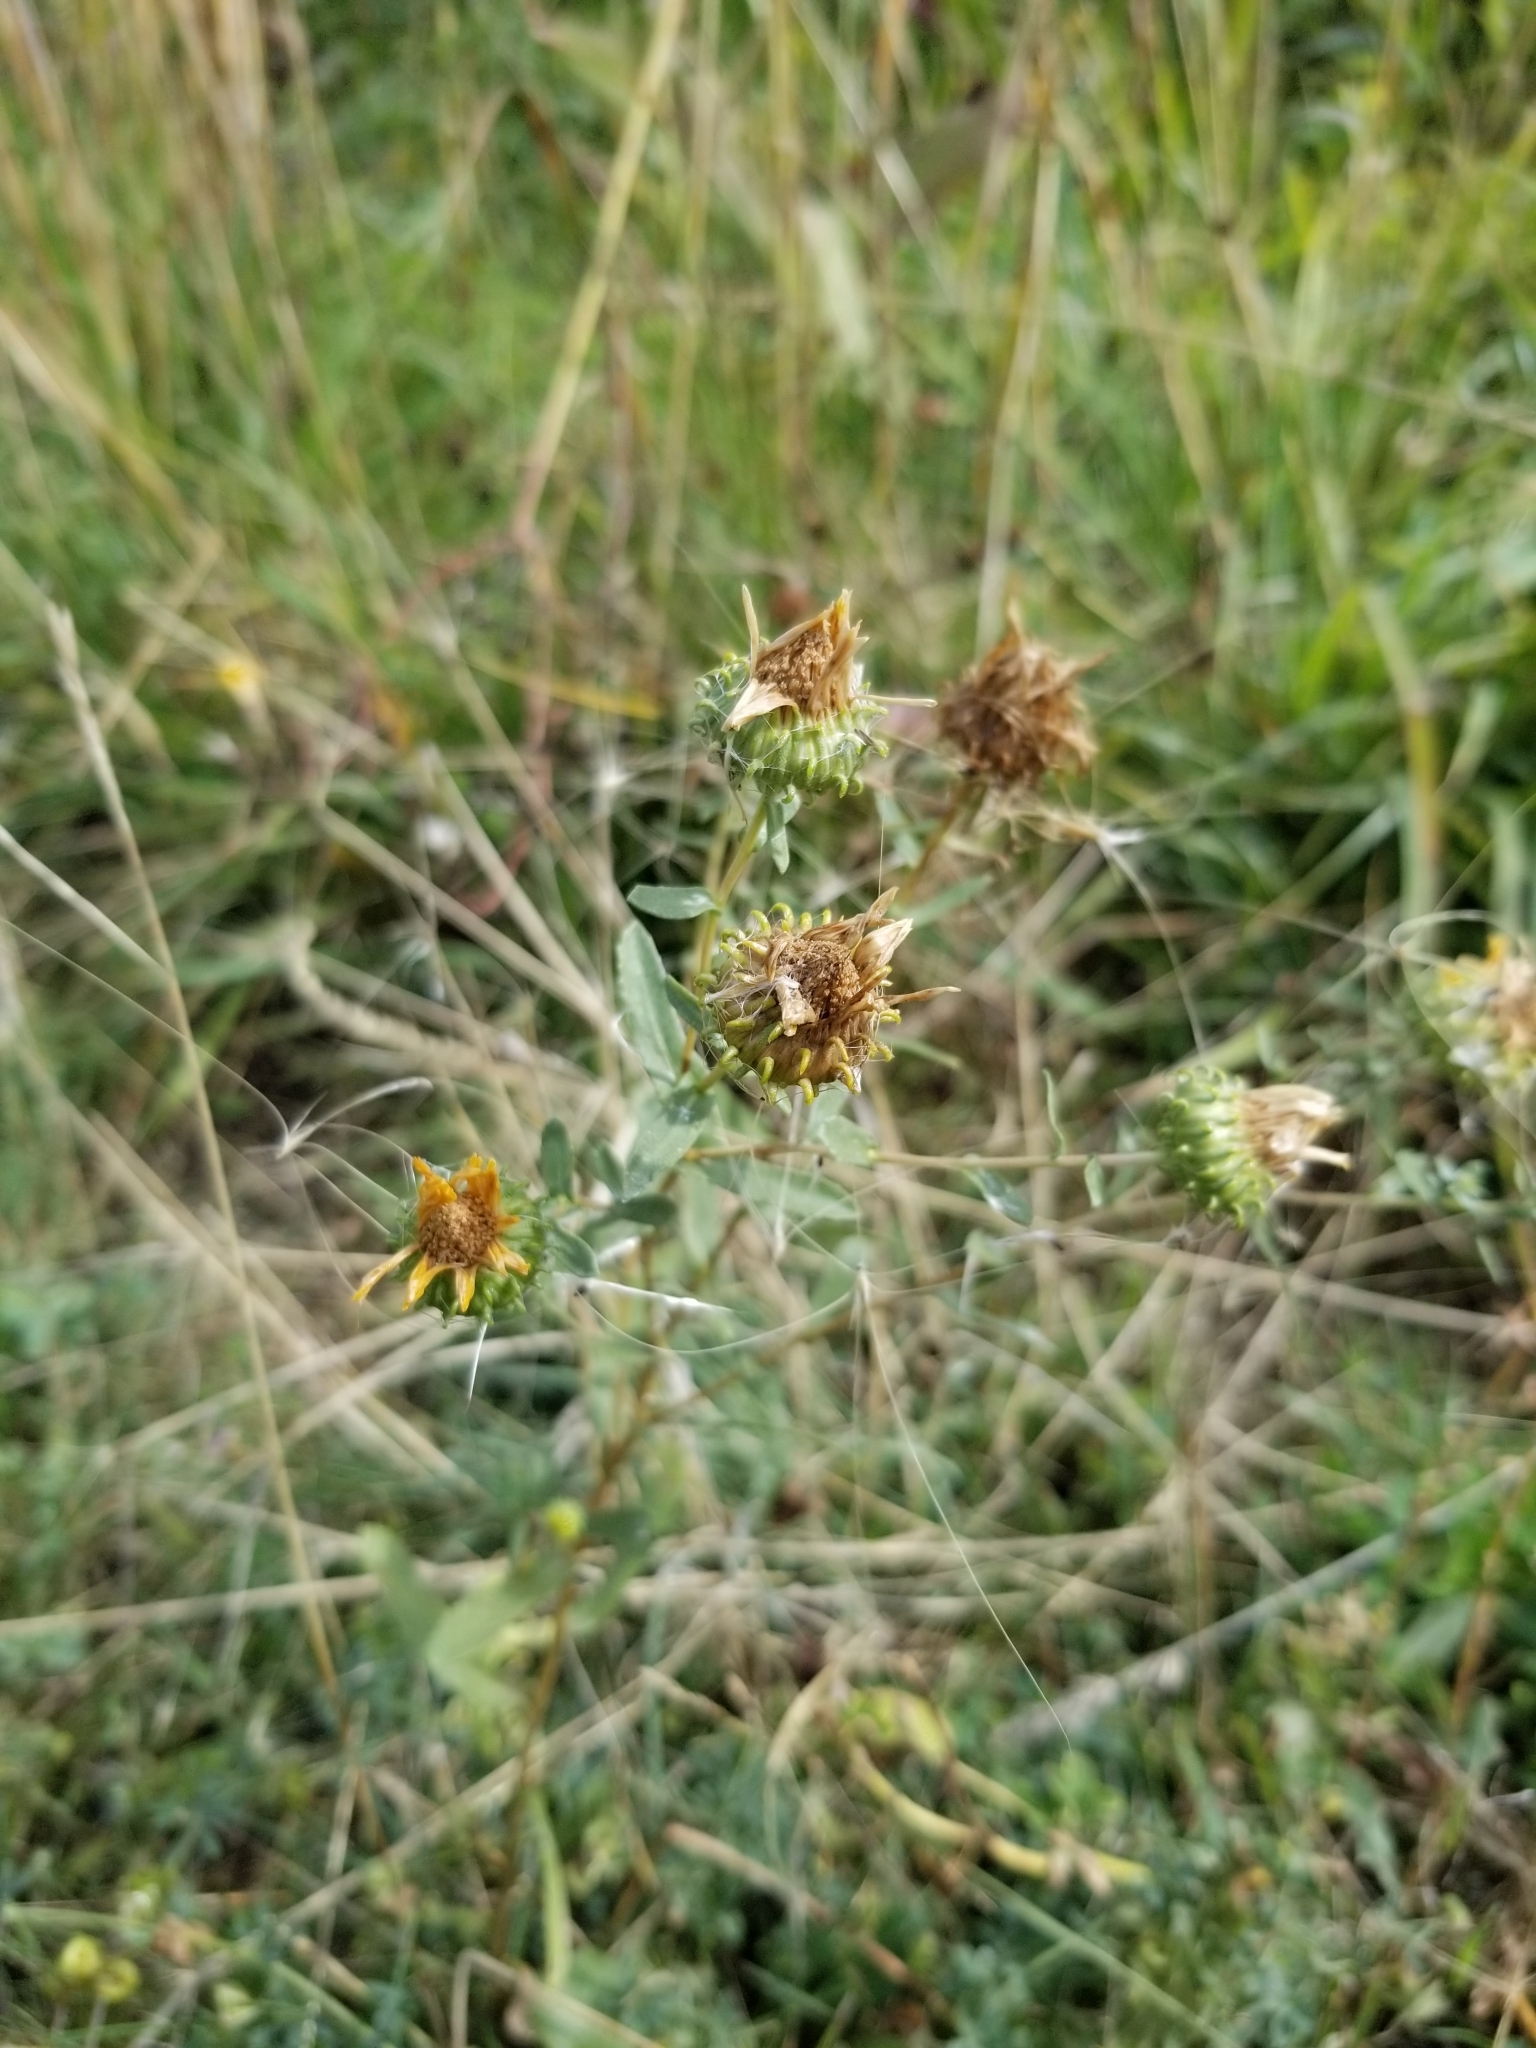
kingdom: Plantae
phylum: Tracheophyta
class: Magnoliopsida
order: Asterales
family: Asteraceae
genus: Grindelia
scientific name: Grindelia squarrosa
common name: Curly-cup gumweed
